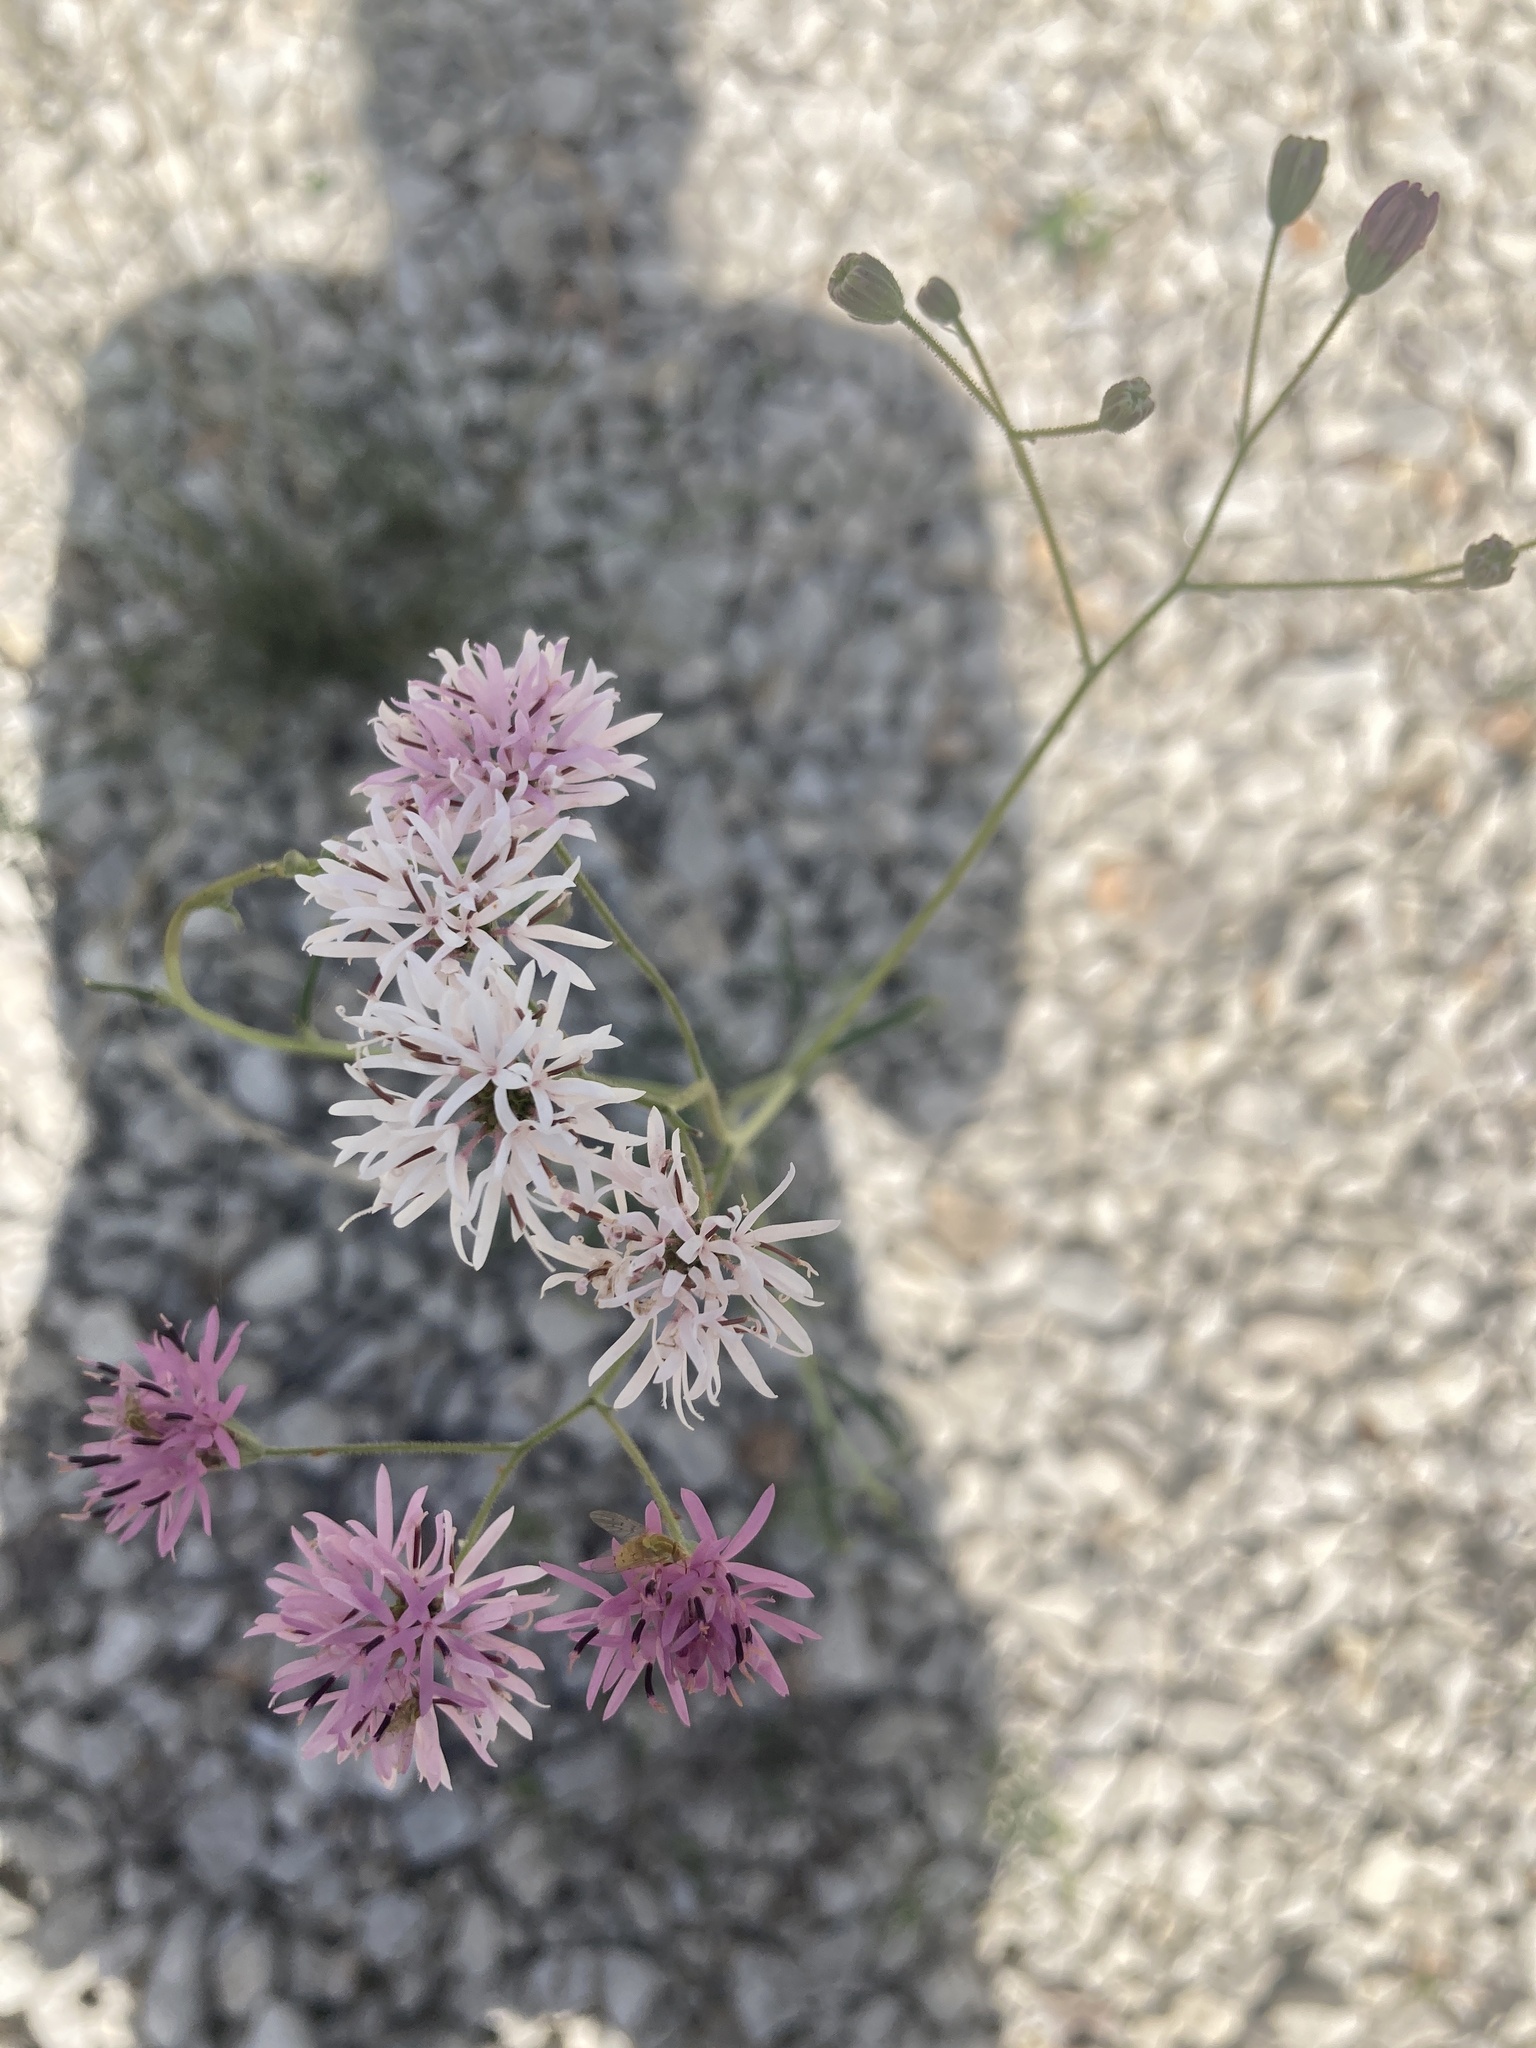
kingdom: Plantae
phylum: Tracheophyta
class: Magnoliopsida
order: Asterales
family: Asteraceae
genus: Palafoxia
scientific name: Palafoxia callosa
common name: Small palafox
